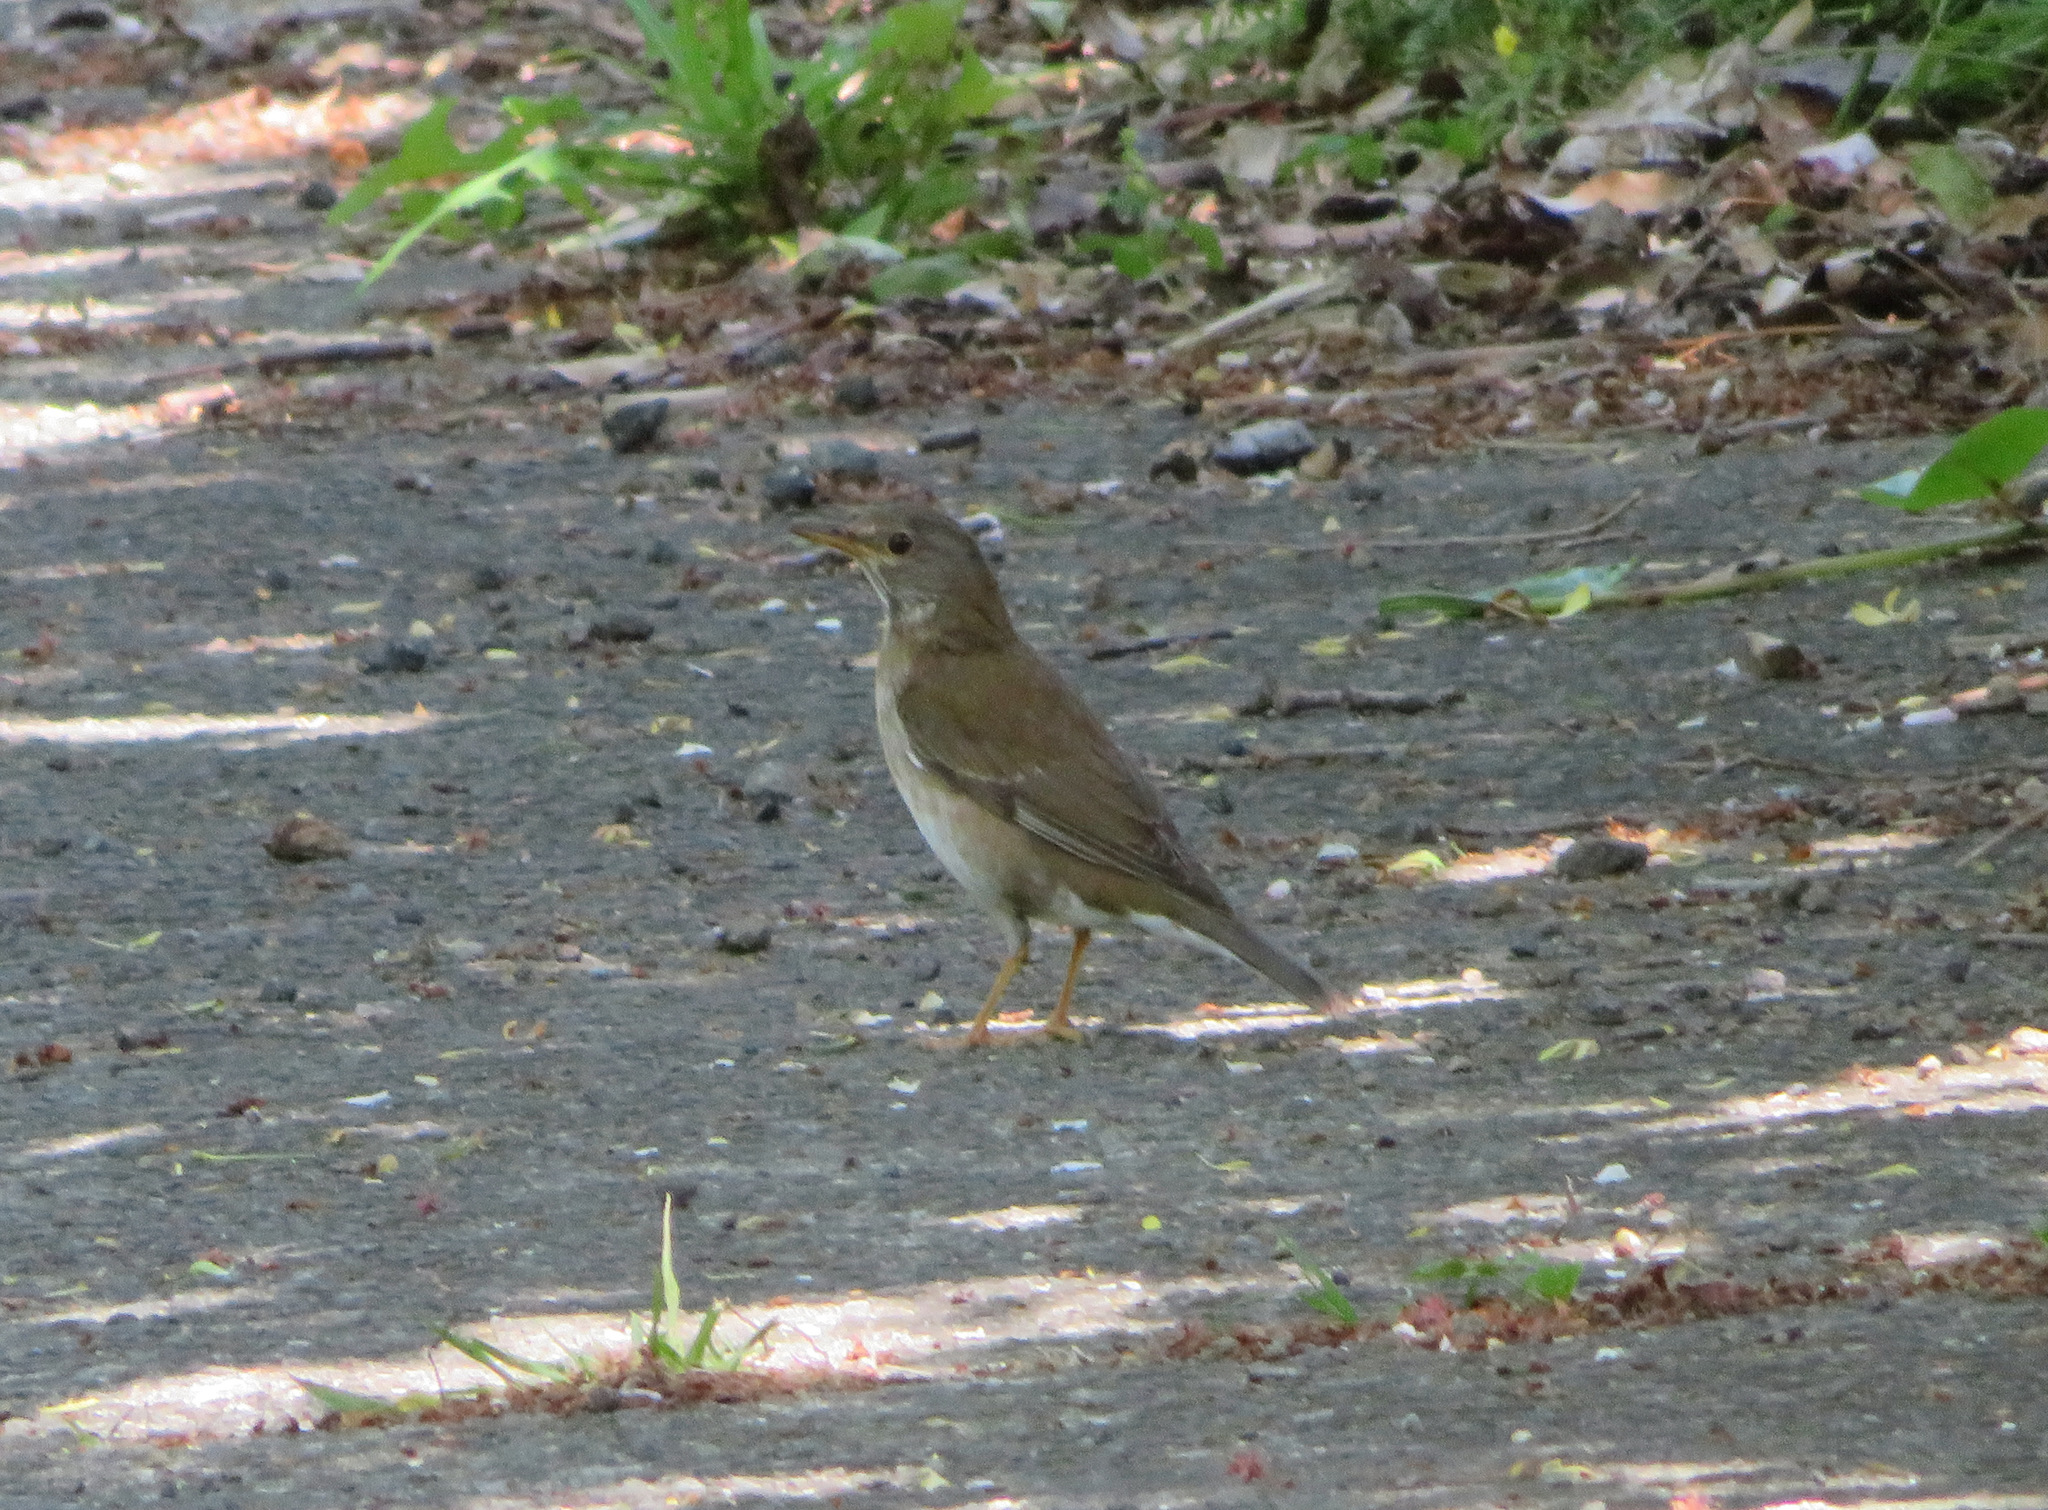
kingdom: Animalia
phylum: Chordata
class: Aves
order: Passeriformes
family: Turdidae
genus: Turdus
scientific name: Turdus pallidus
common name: Pale thrush
